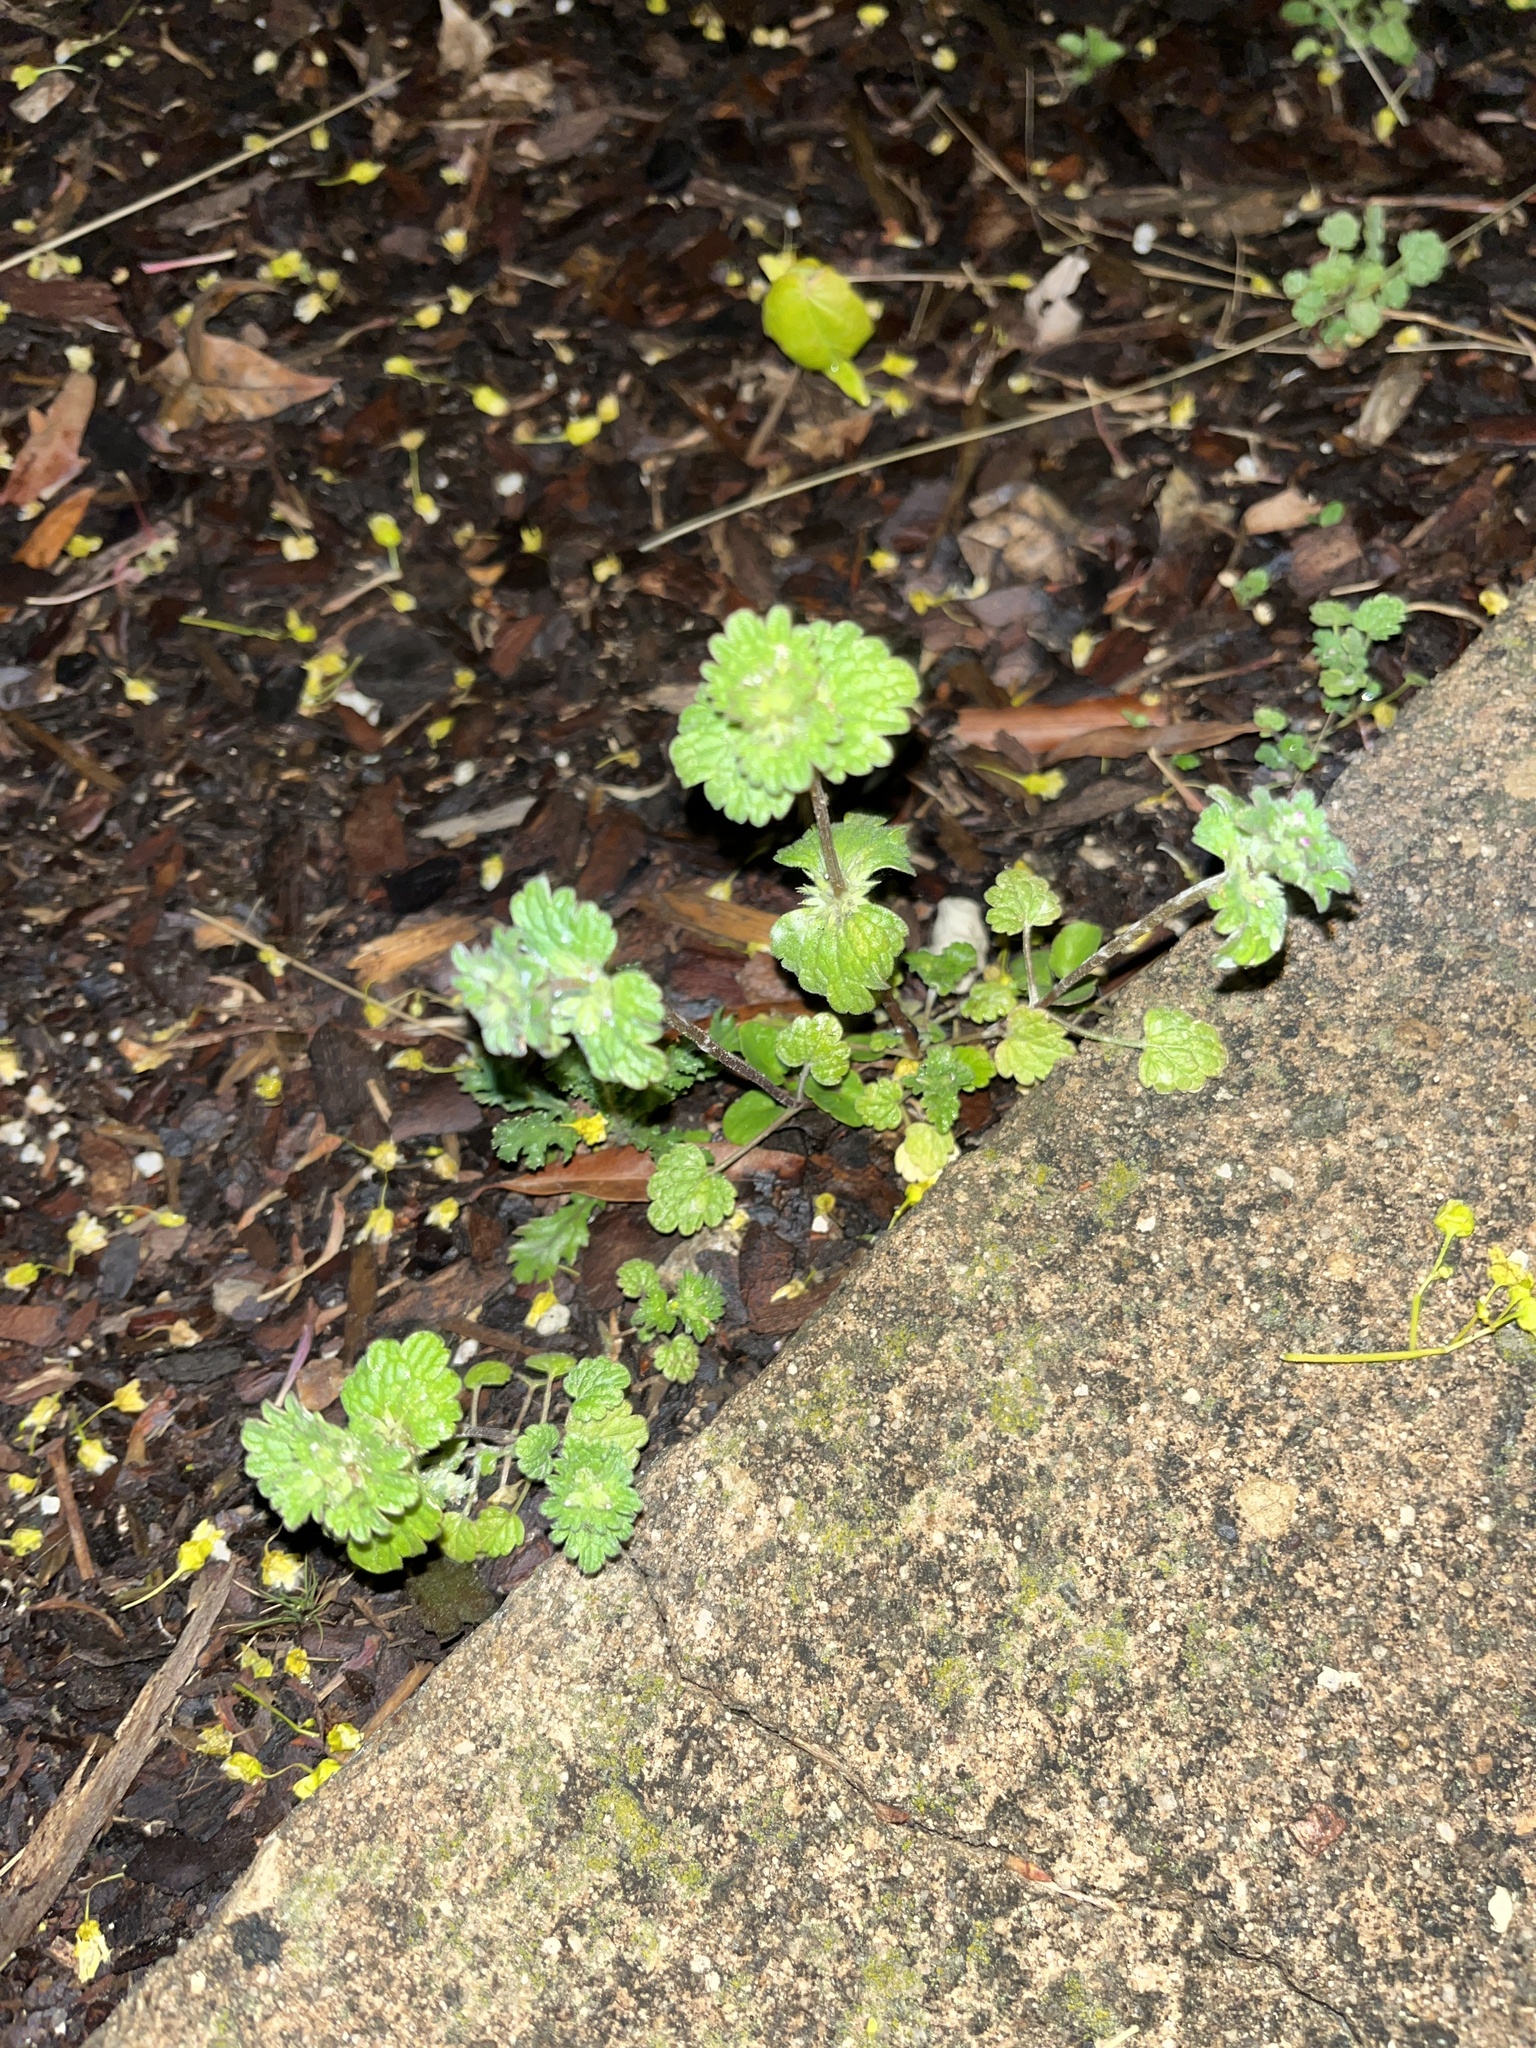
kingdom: Plantae
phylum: Tracheophyta
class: Magnoliopsida
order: Lamiales
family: Lamiaceae
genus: Lamium
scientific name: Lamium amplexicaule
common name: Henbit dead-nettle
